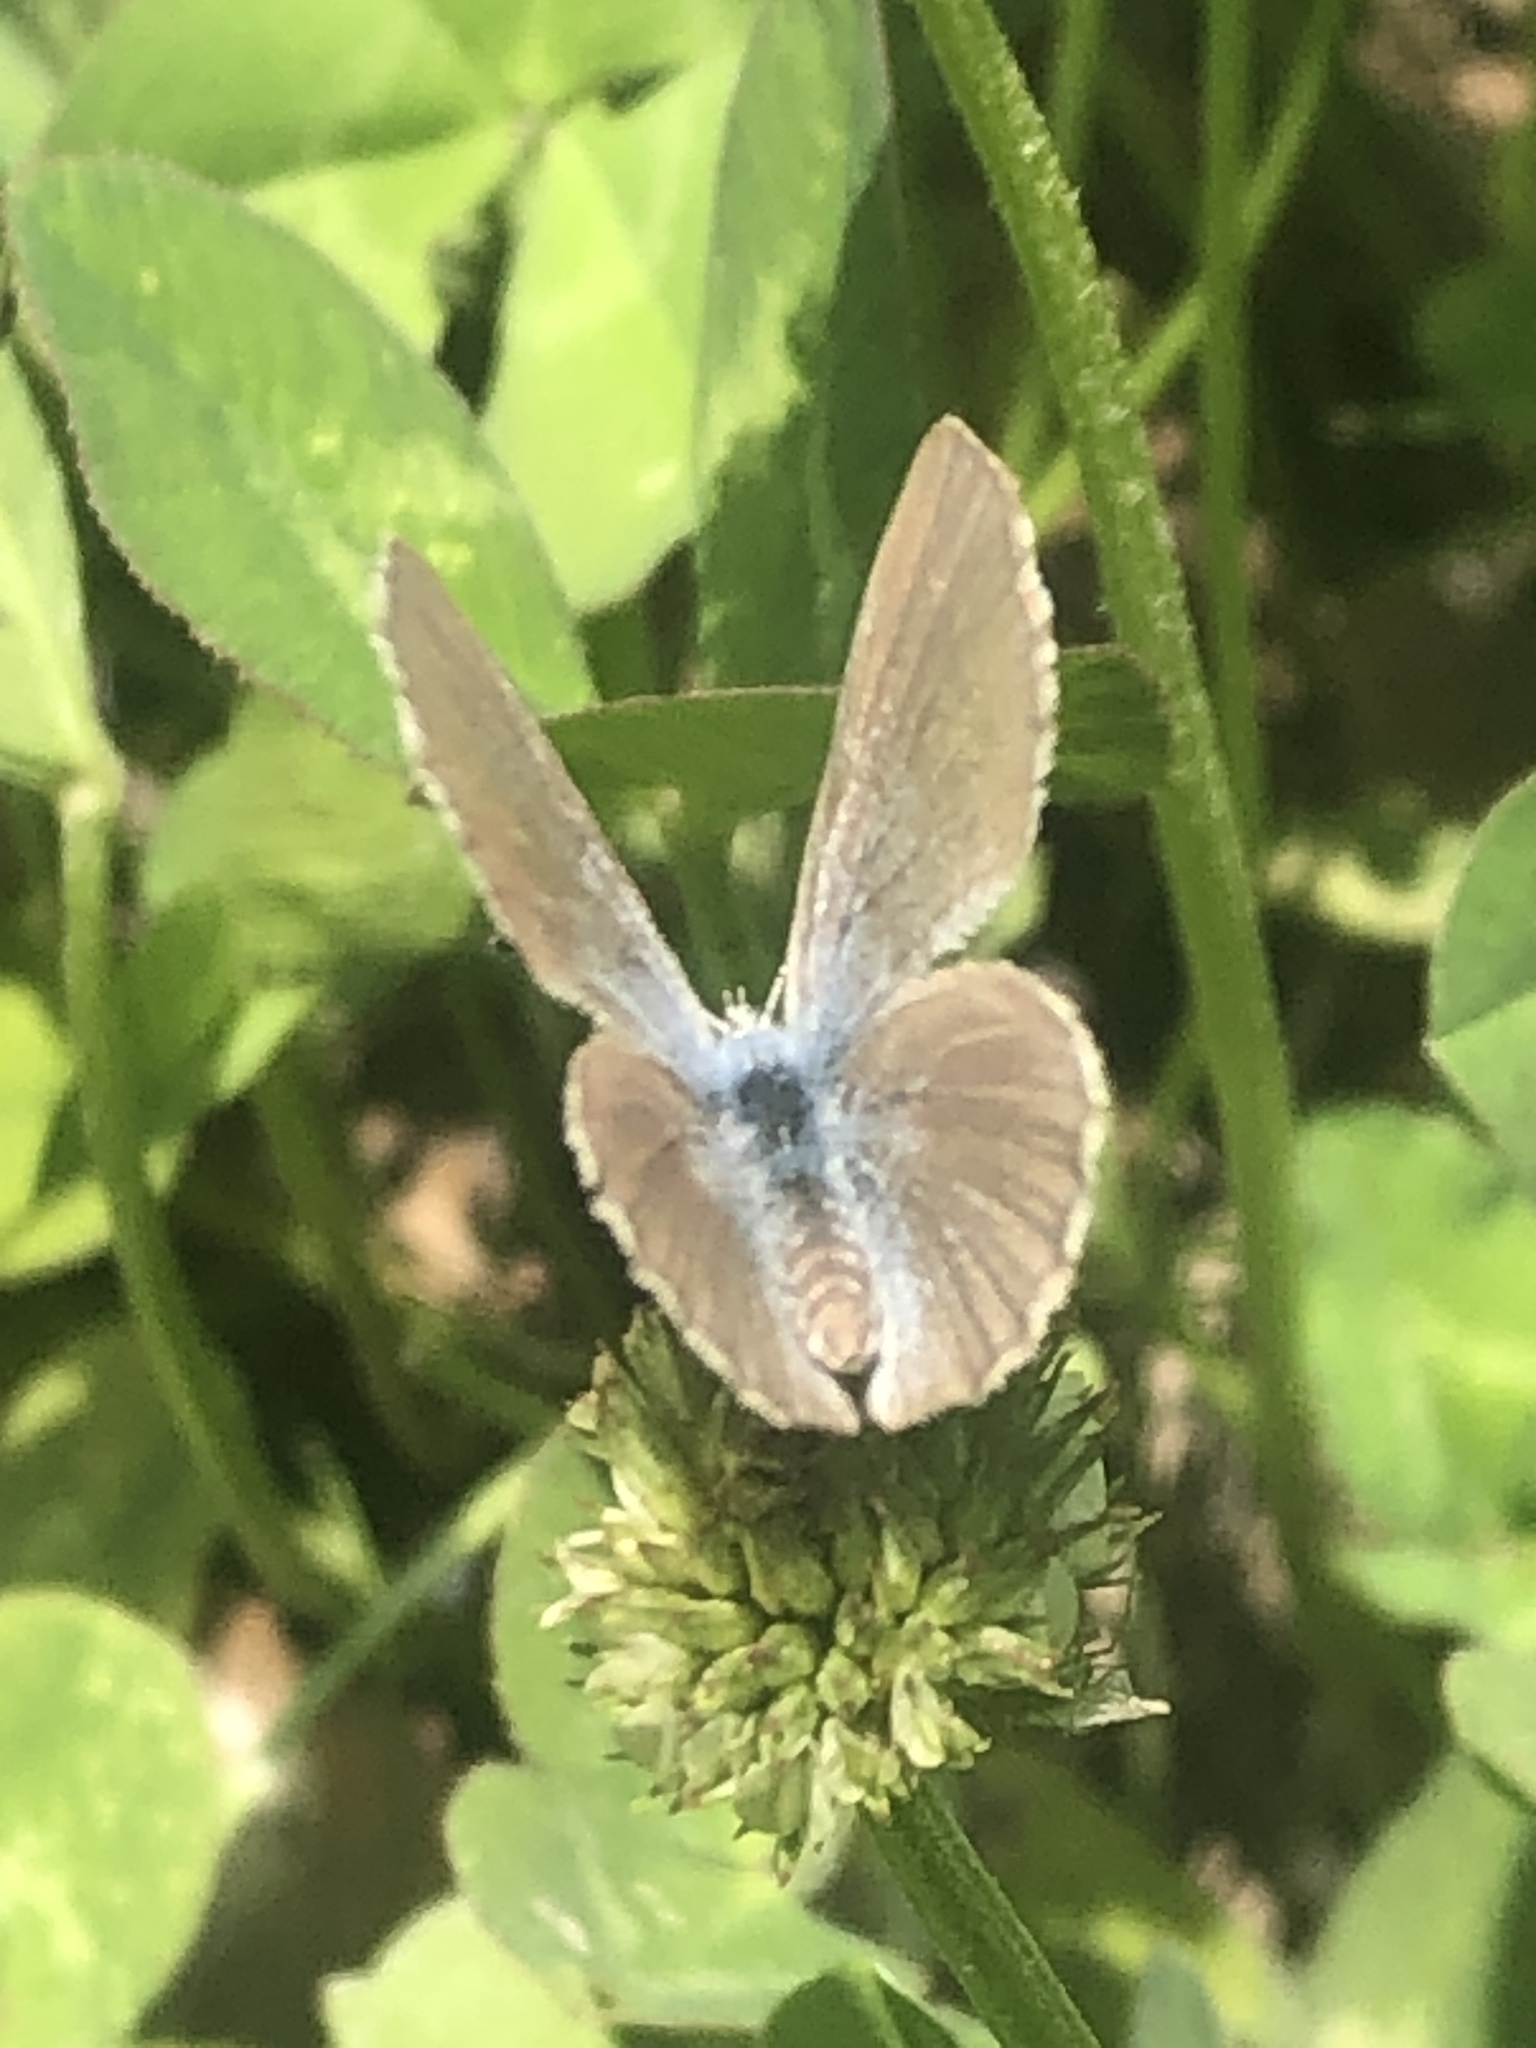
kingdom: Animalia
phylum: Arthropoda
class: Insecta
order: Lepidoptera
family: Lycaenidae
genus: Glaucopsyche
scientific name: Glaucopsyche lygdamus
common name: Silvery blue
